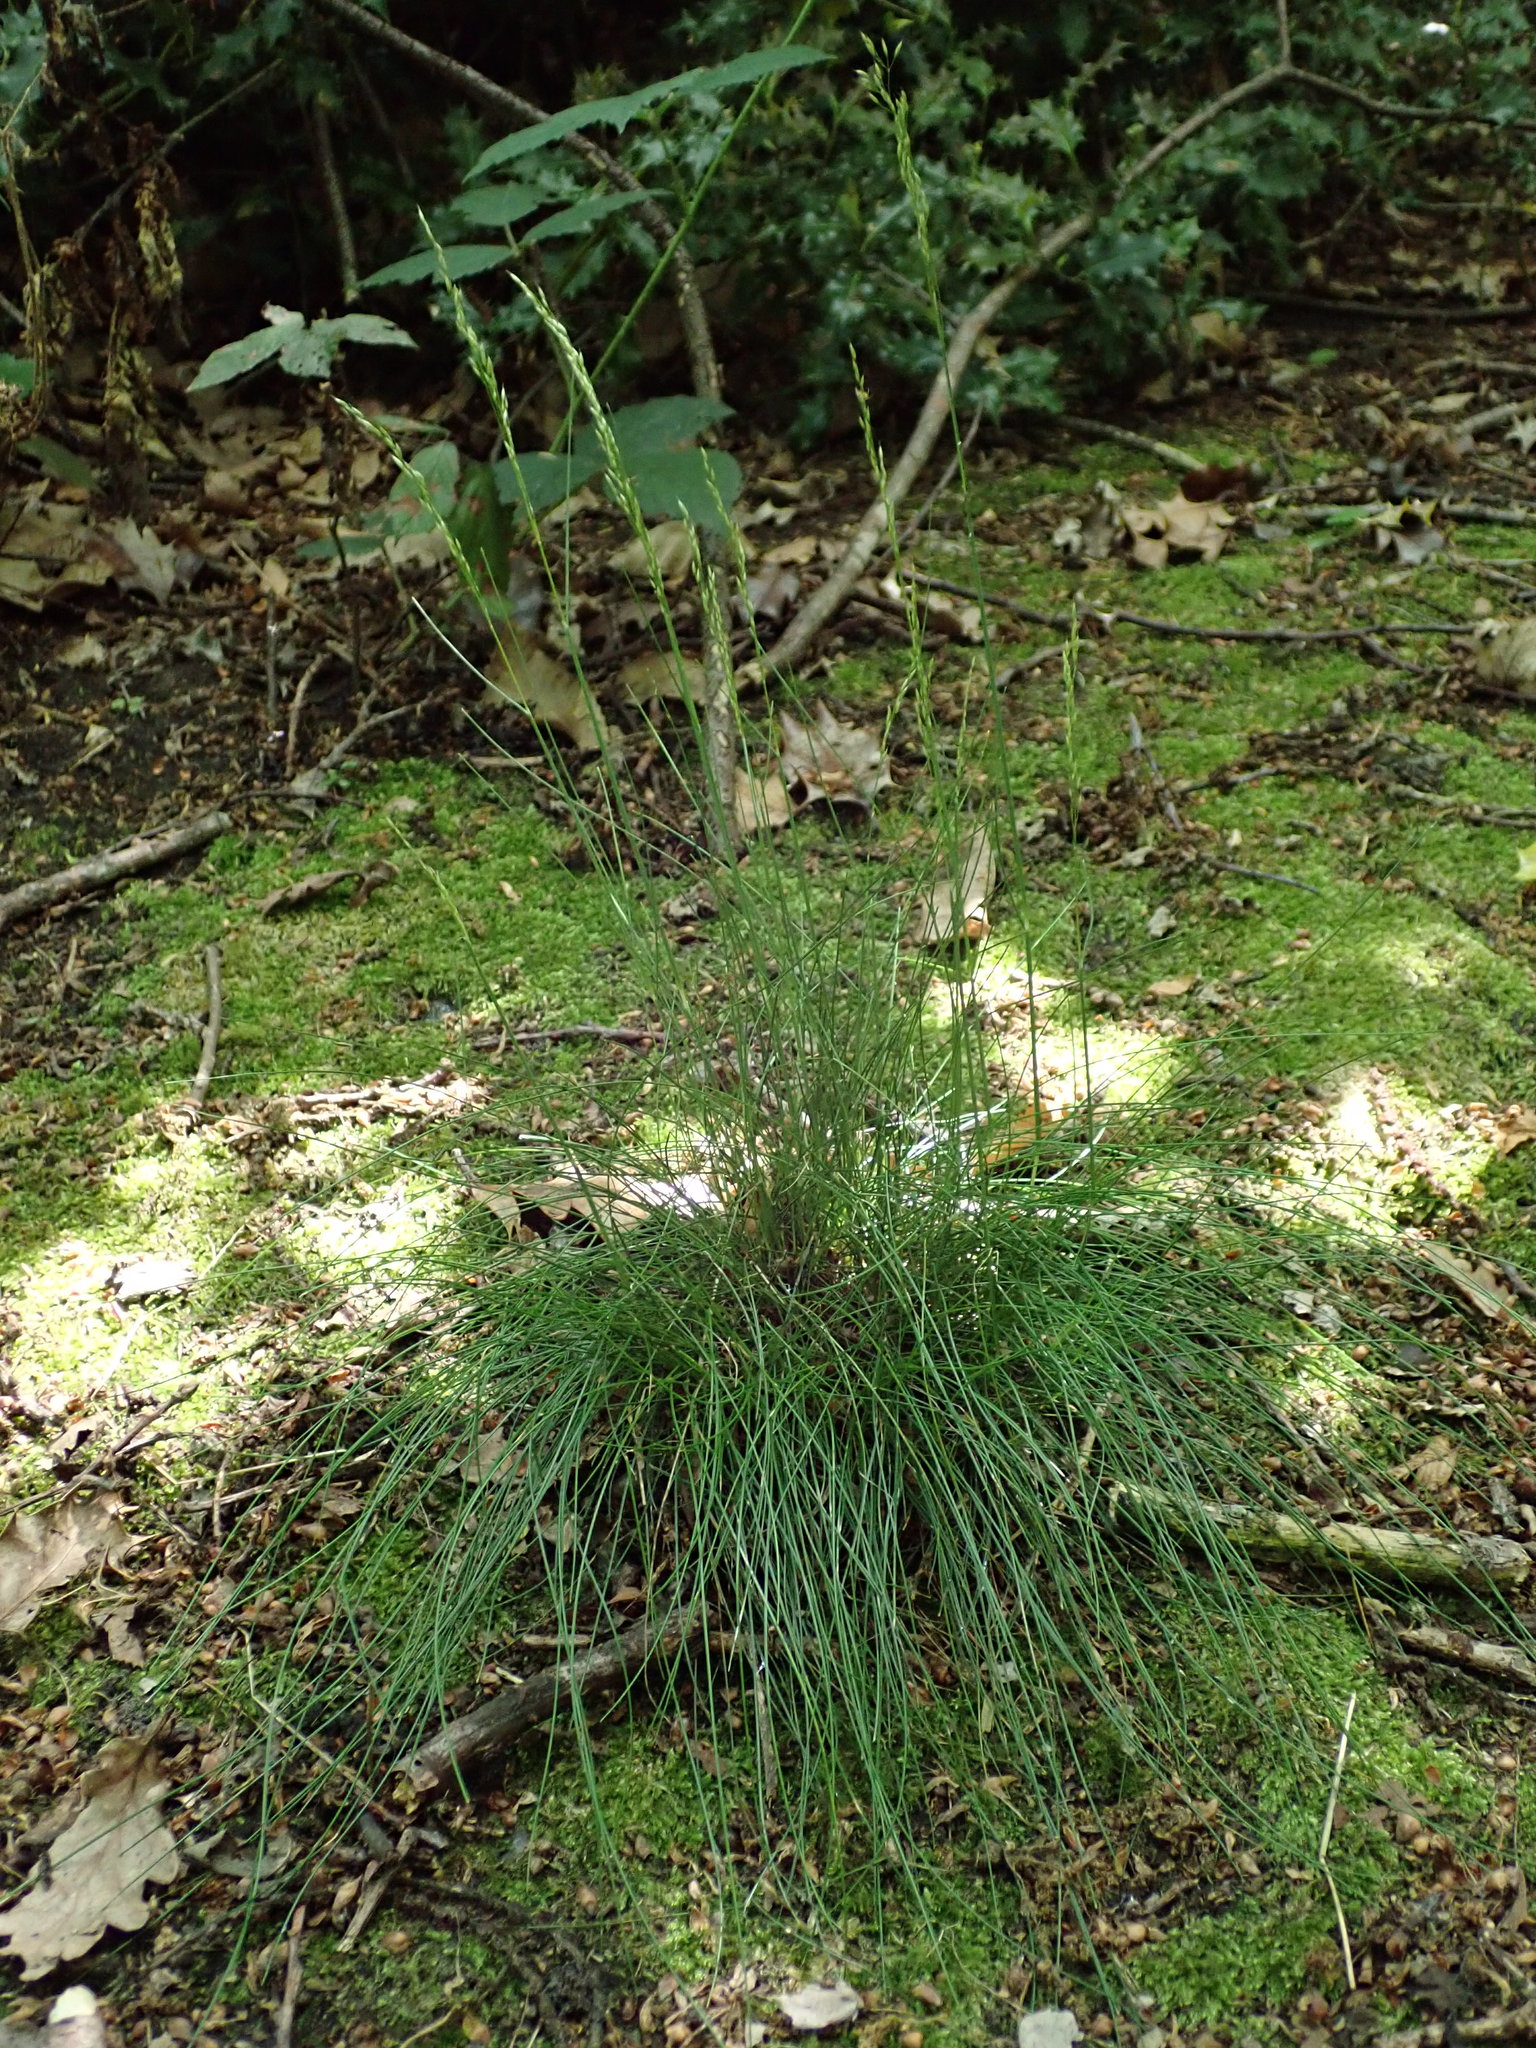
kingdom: Plantae
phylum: Tracheophyta
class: Liliopsida
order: Poales
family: Poaceae
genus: Avenella
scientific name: Avenella flexuosa
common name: Wavy hairgrass
